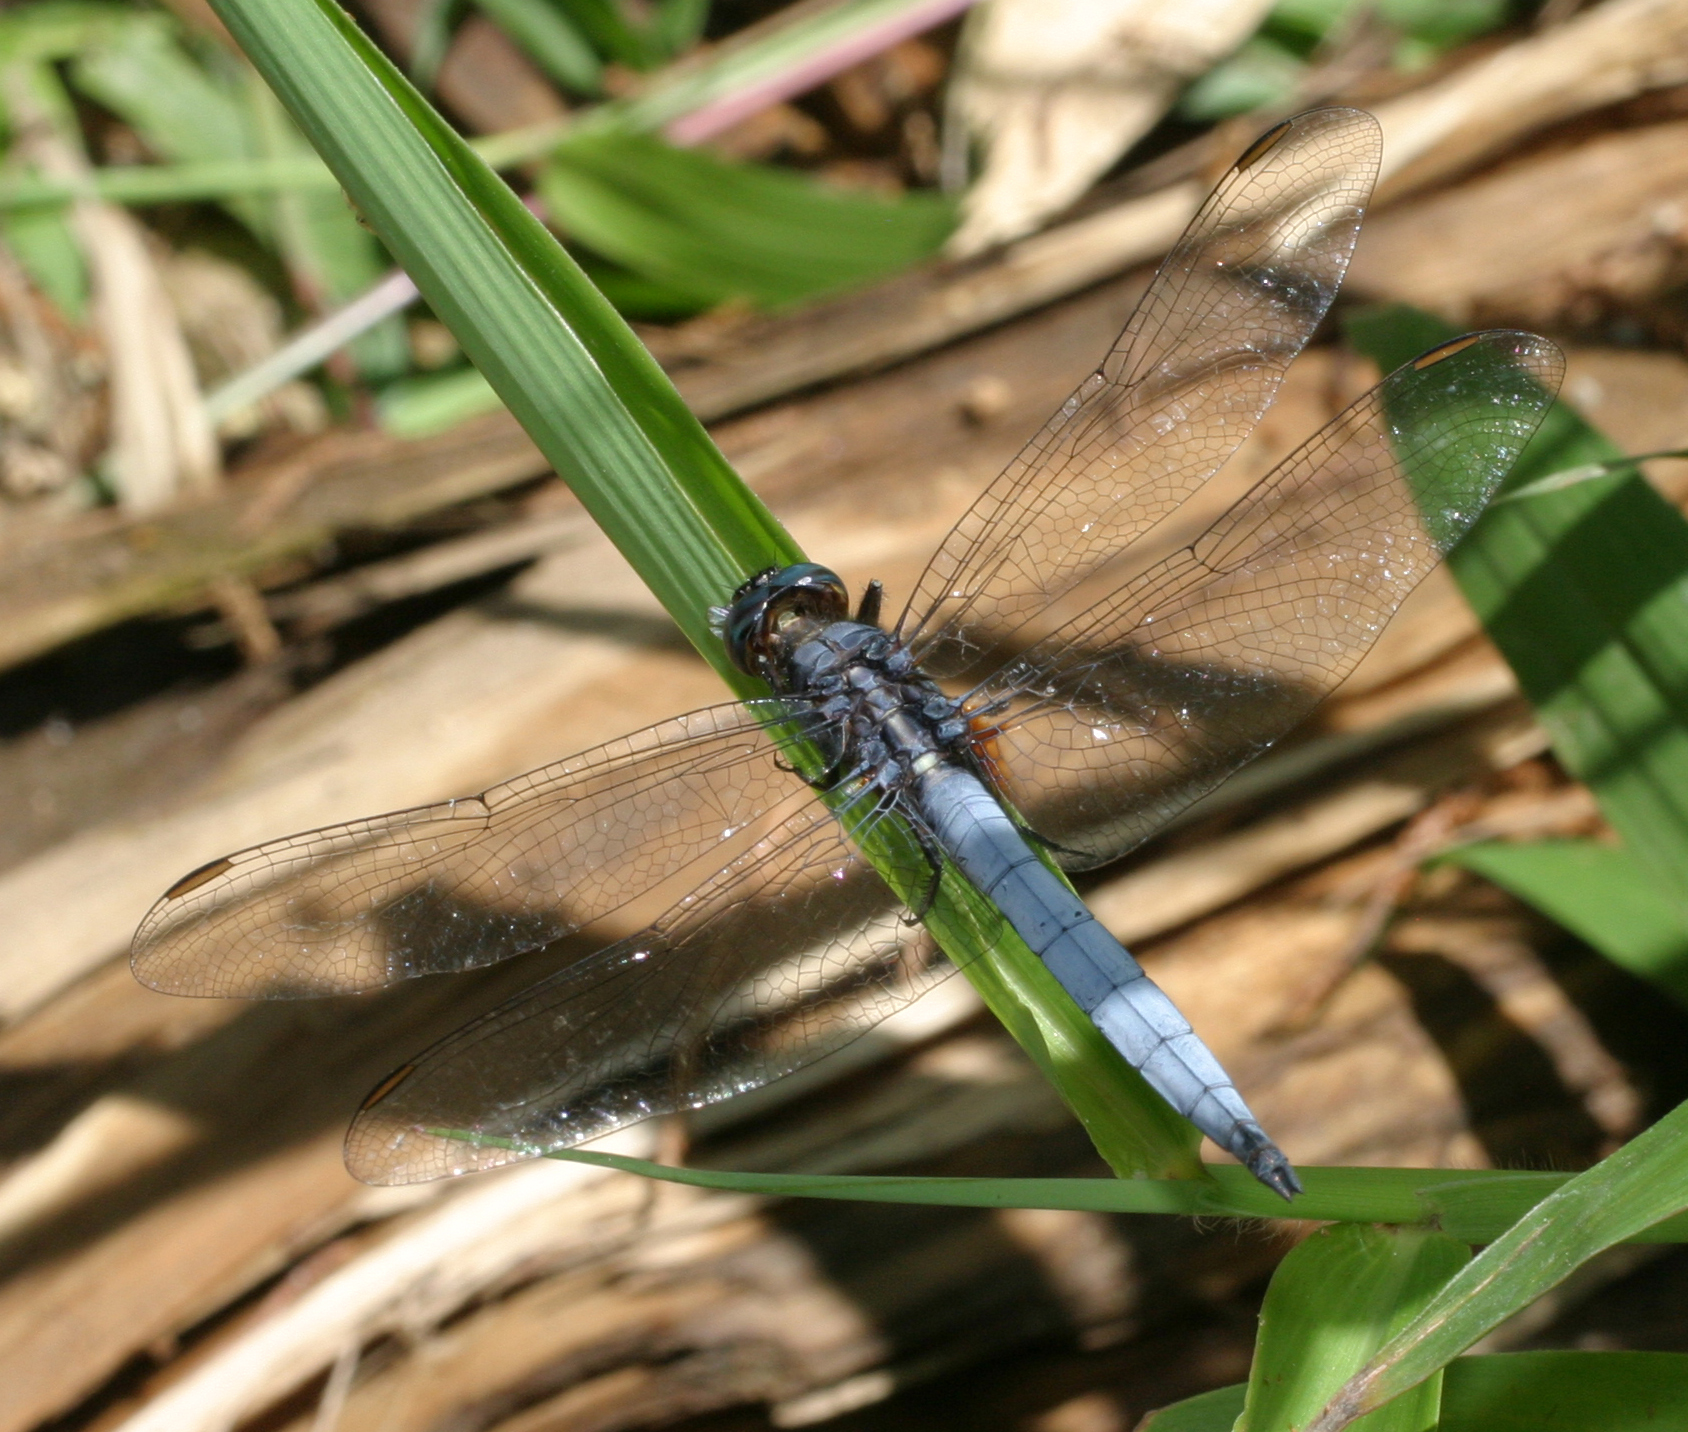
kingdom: Animalia
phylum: Arthropoda
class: Insecta
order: Odonata
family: Libellulidae
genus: Orthetrum
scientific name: Orthetrum glaucum
